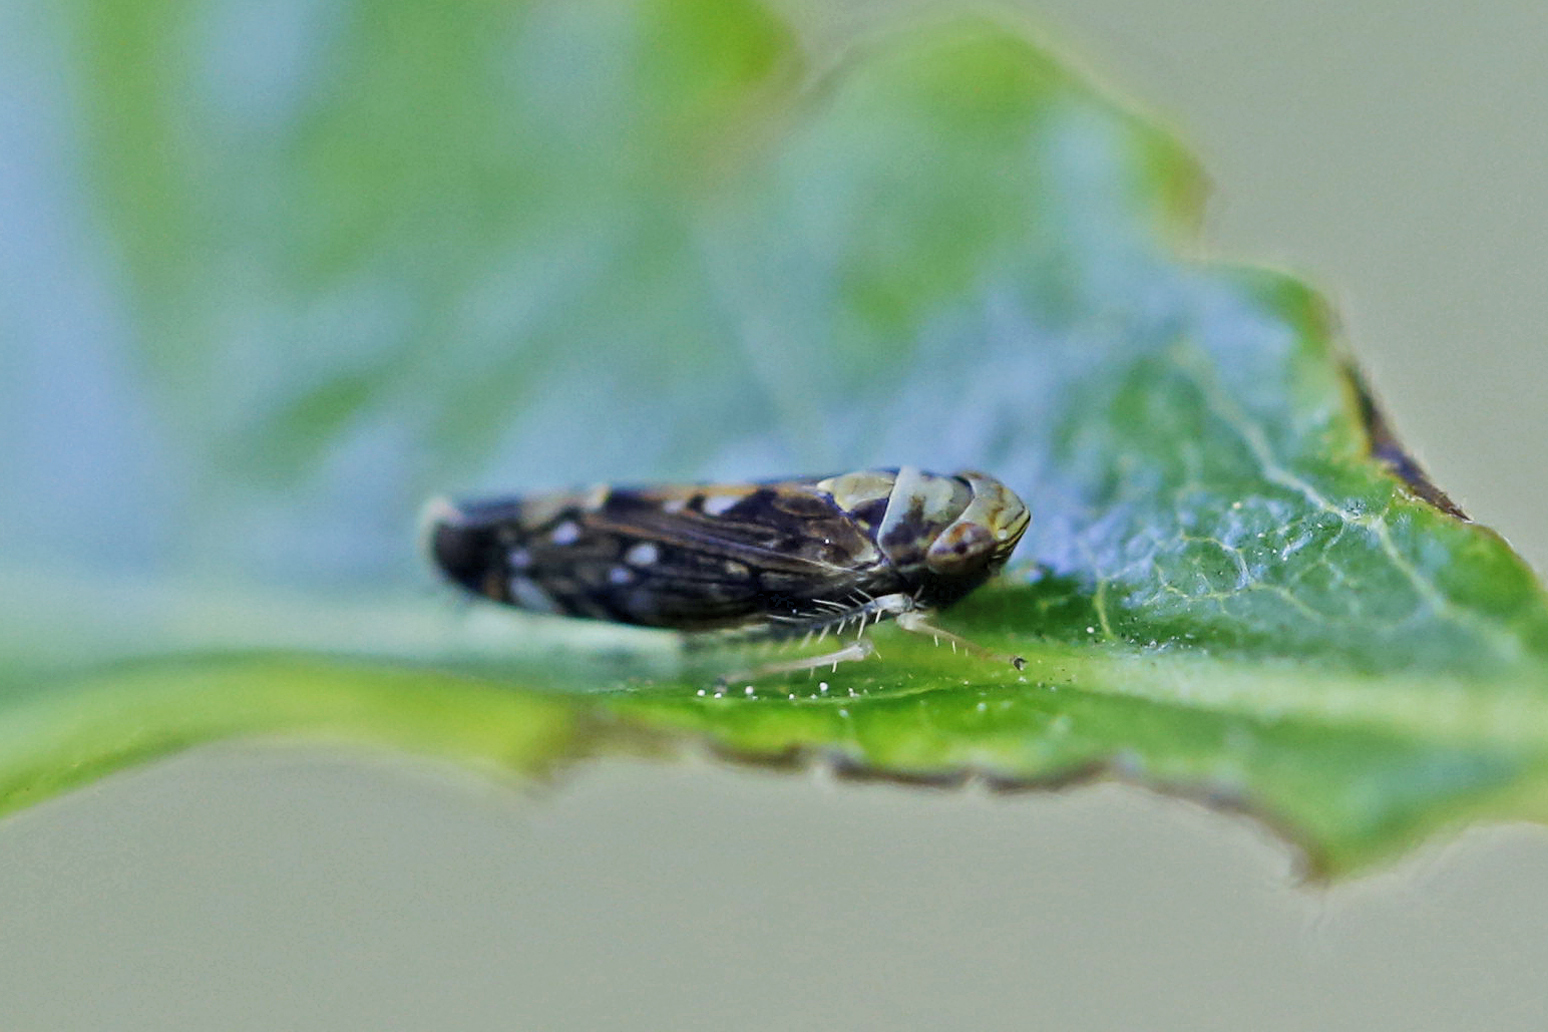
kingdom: Animalia
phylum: Arthropoda
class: Insecta
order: Hemiptera
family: Cicadellidae
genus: Scaphoideus
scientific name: Scaphoideus pullus
